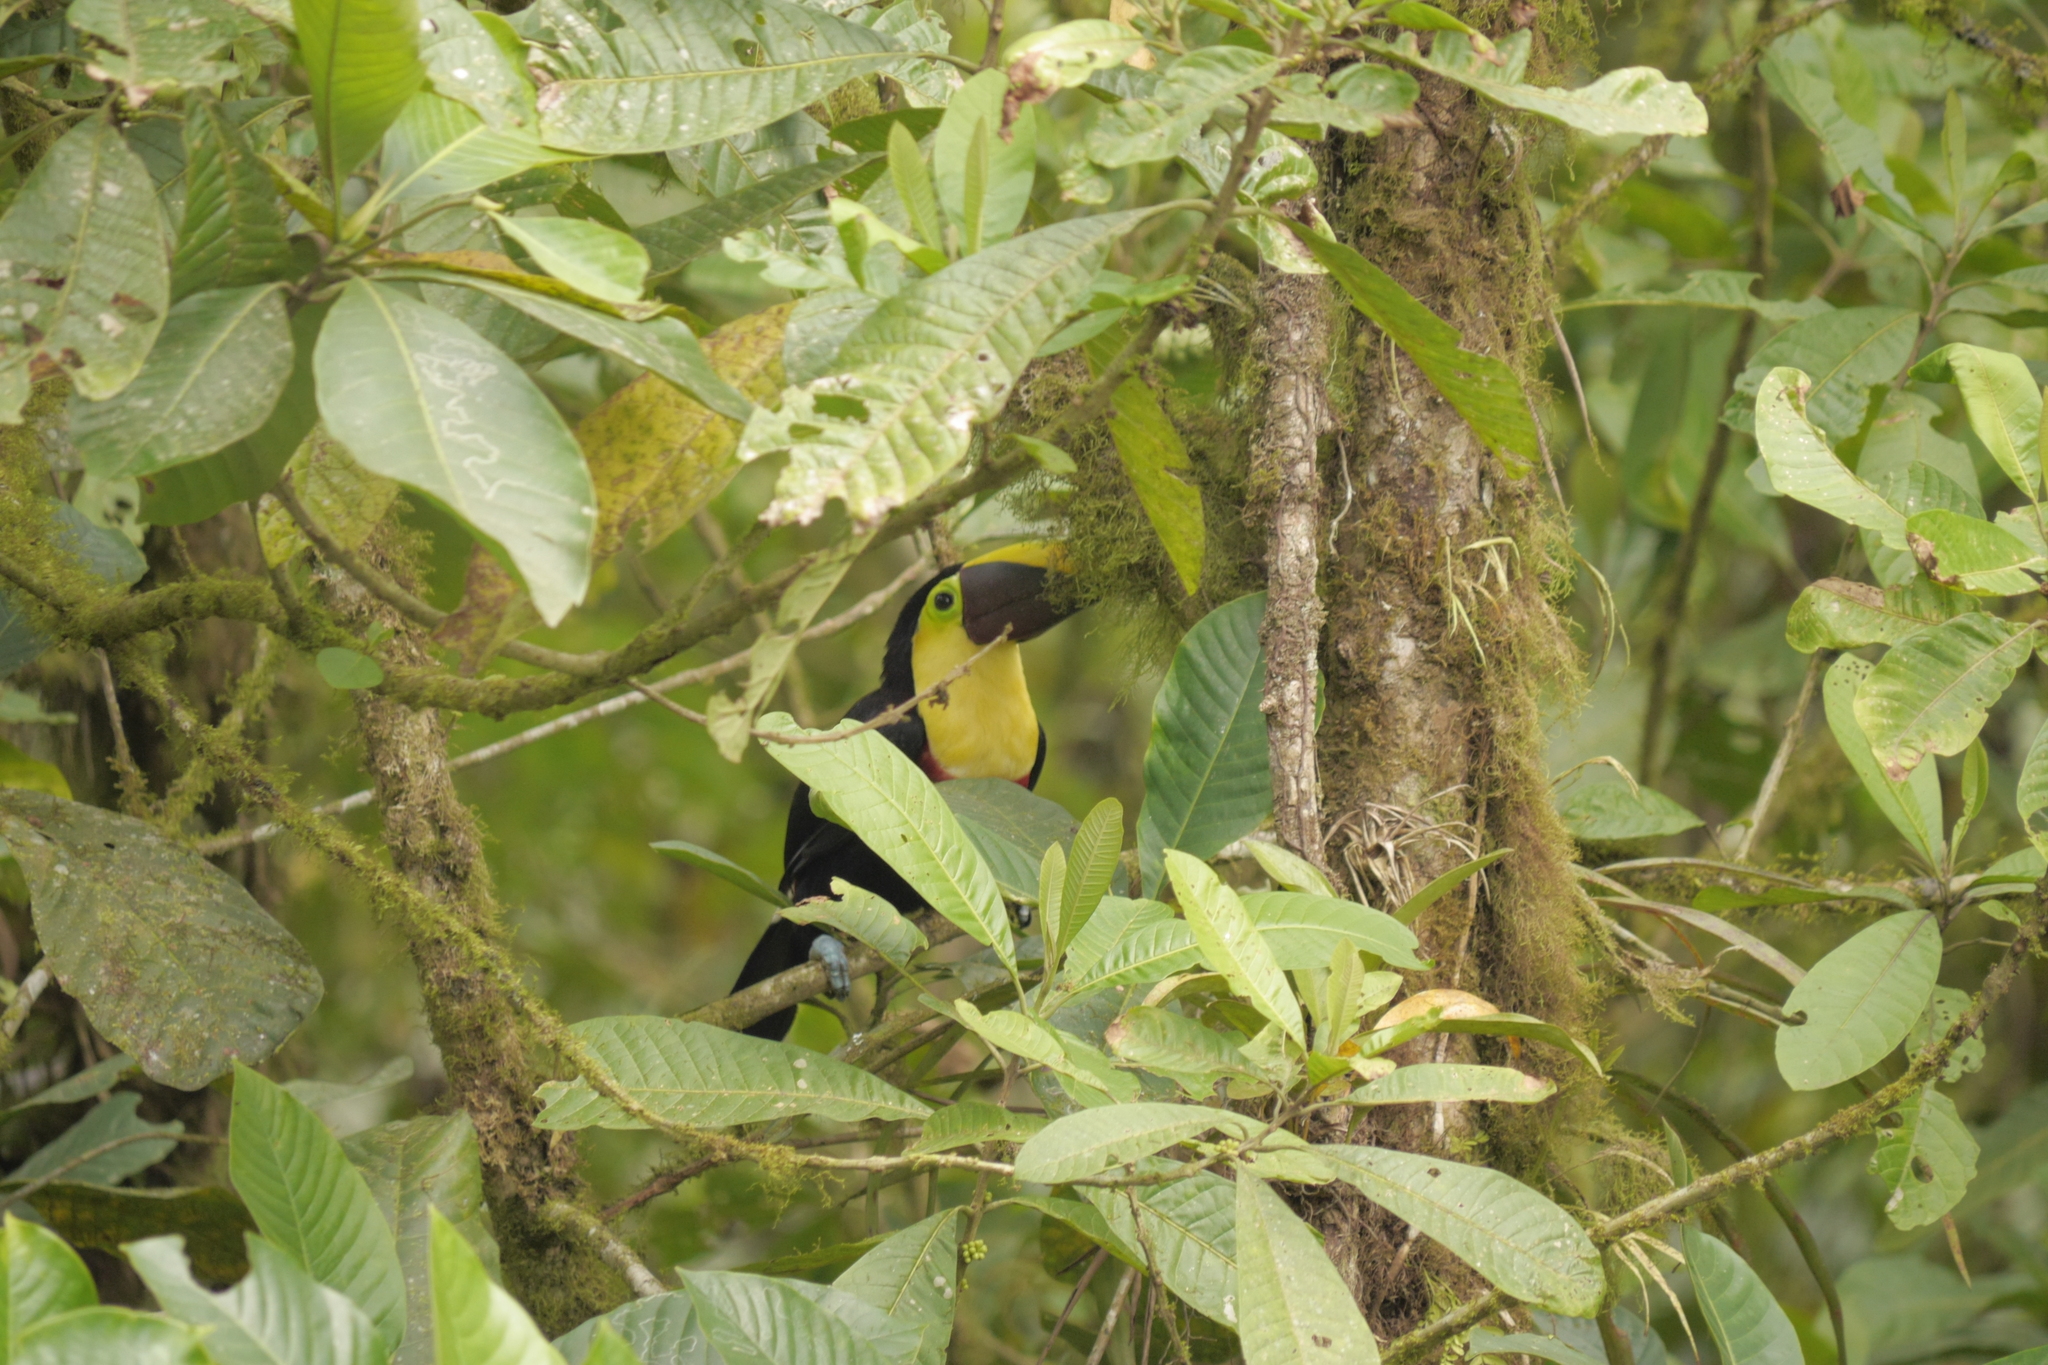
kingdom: Animalia
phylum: Chordata
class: Aves
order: Piciformes
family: Ramphastidae
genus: Ramphastos
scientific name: Ramphastos ambiguus
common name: Yellow-throated toucan
